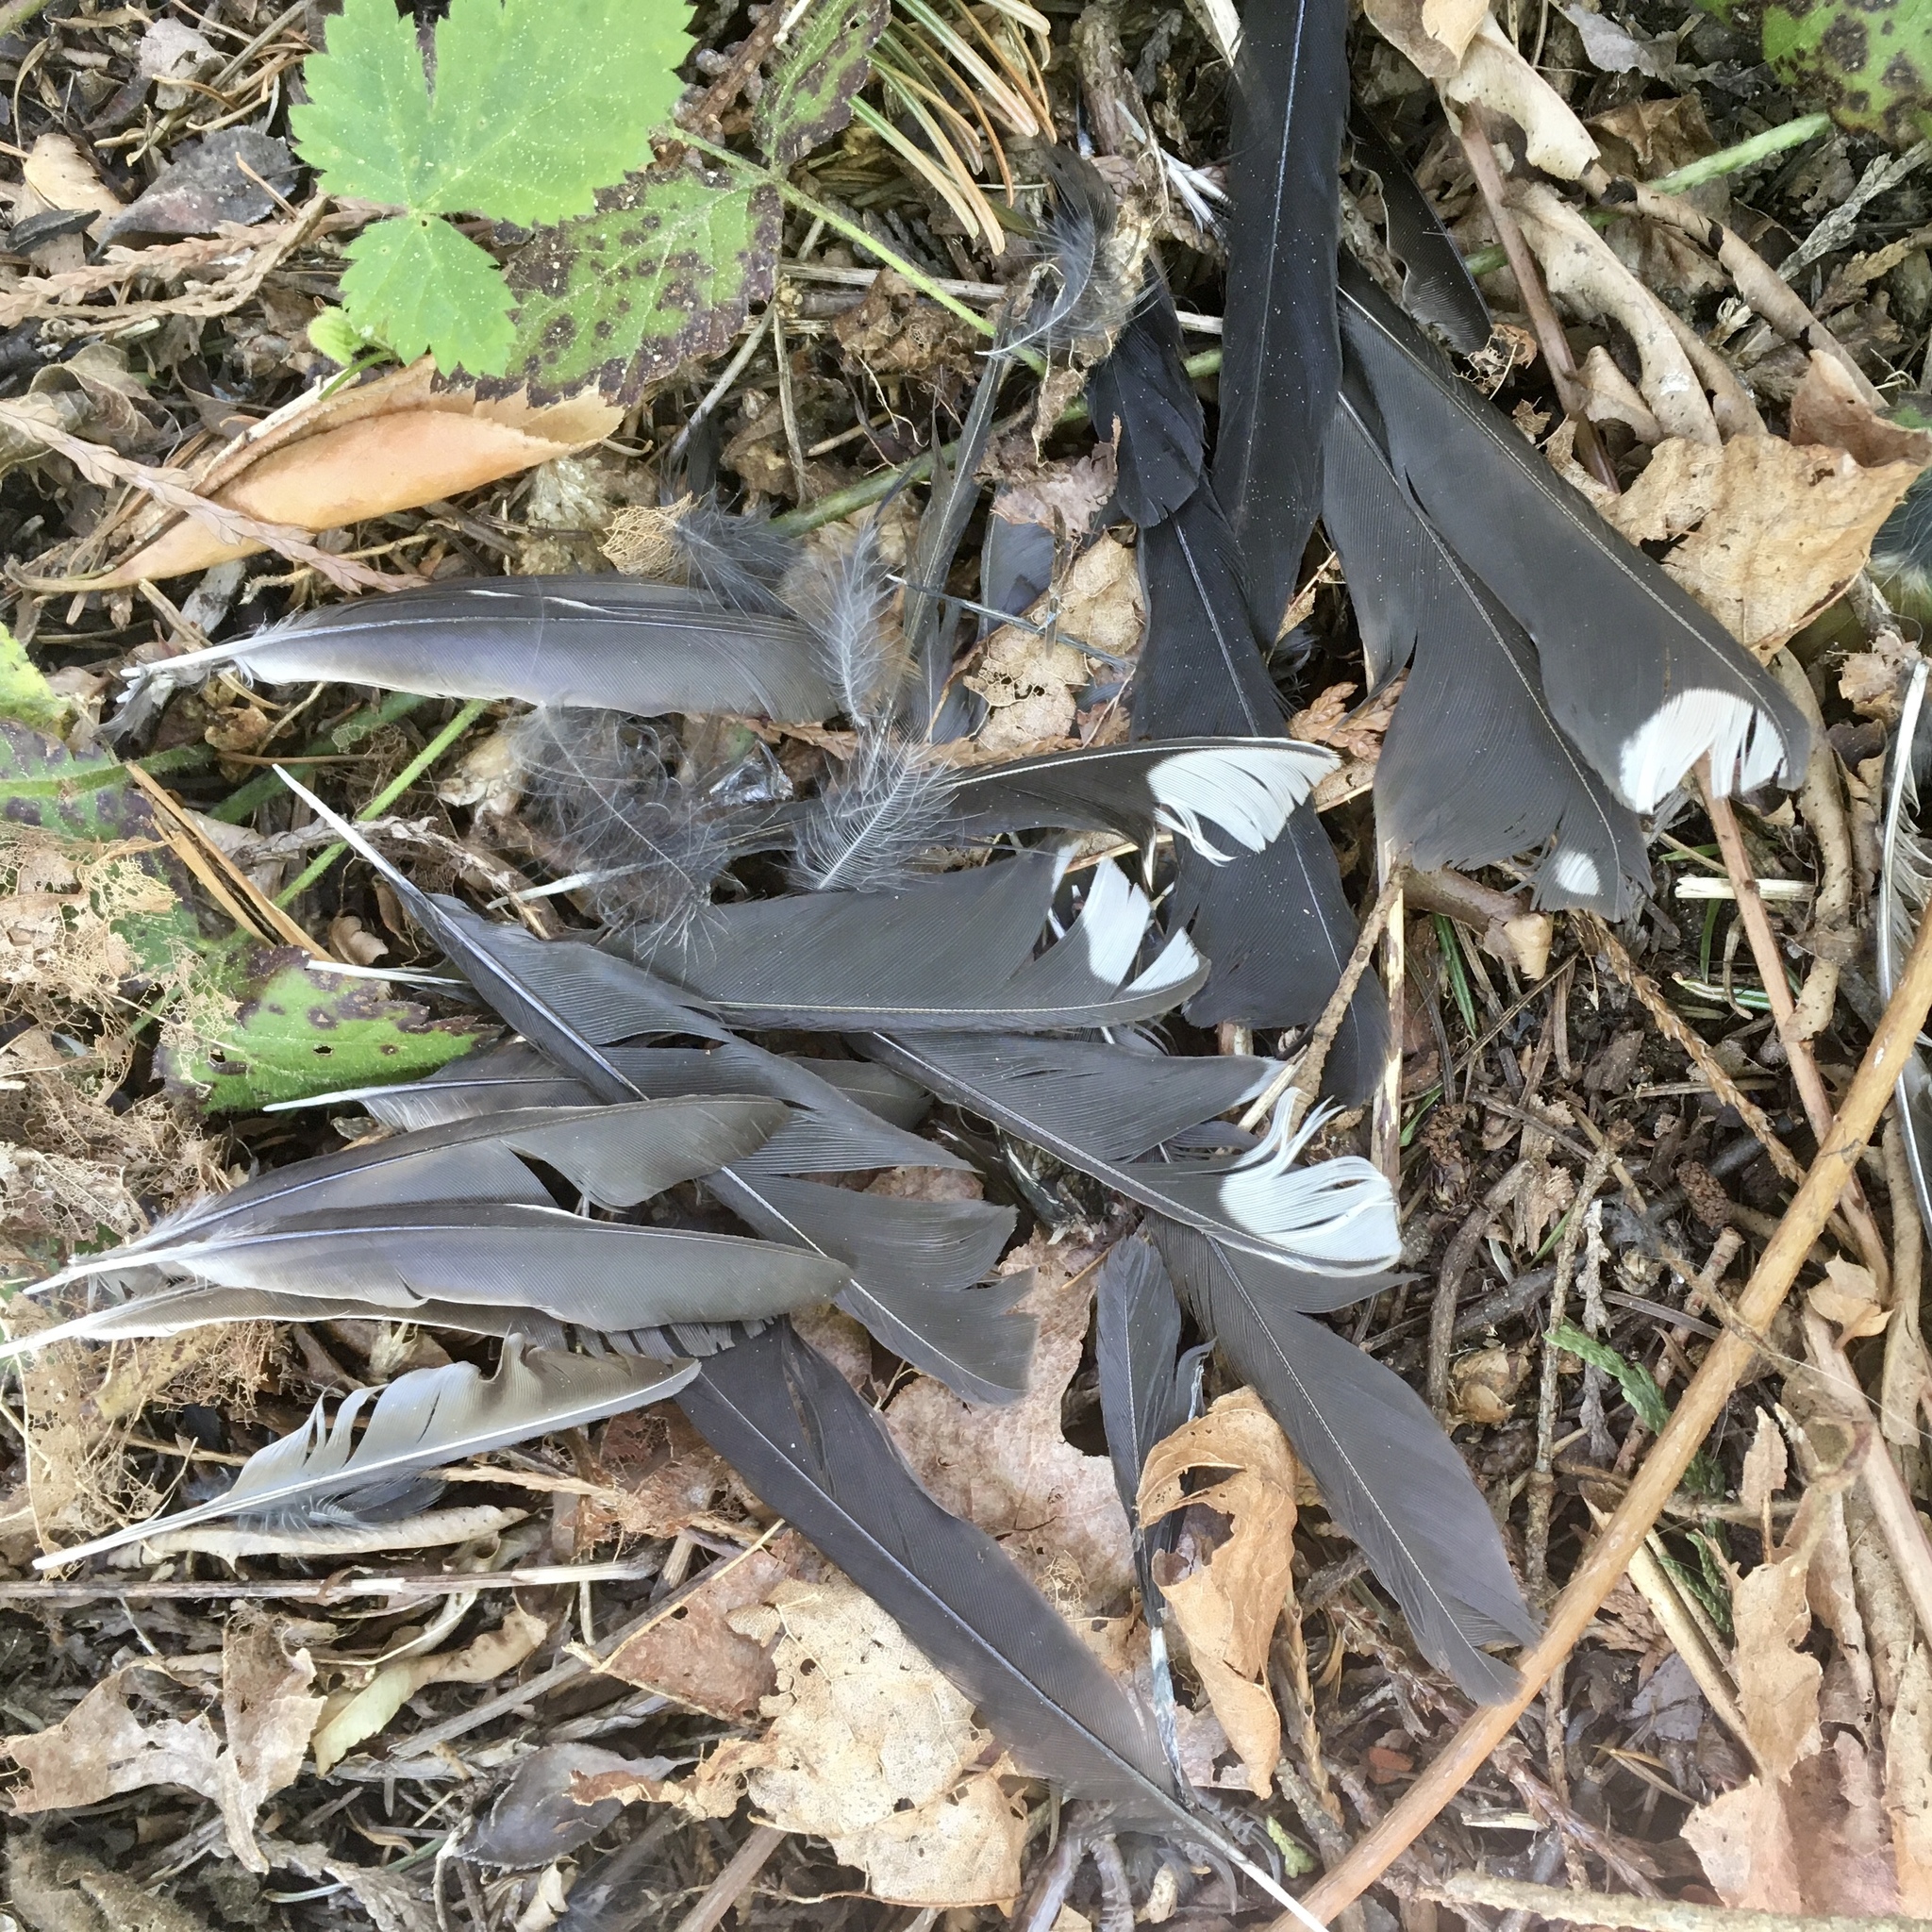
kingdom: Animalia
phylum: Chordata
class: Aves
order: Passeriformes
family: Passerellidae
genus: Pipilo
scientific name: Pipilo maculatus
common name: Spotted towhee
